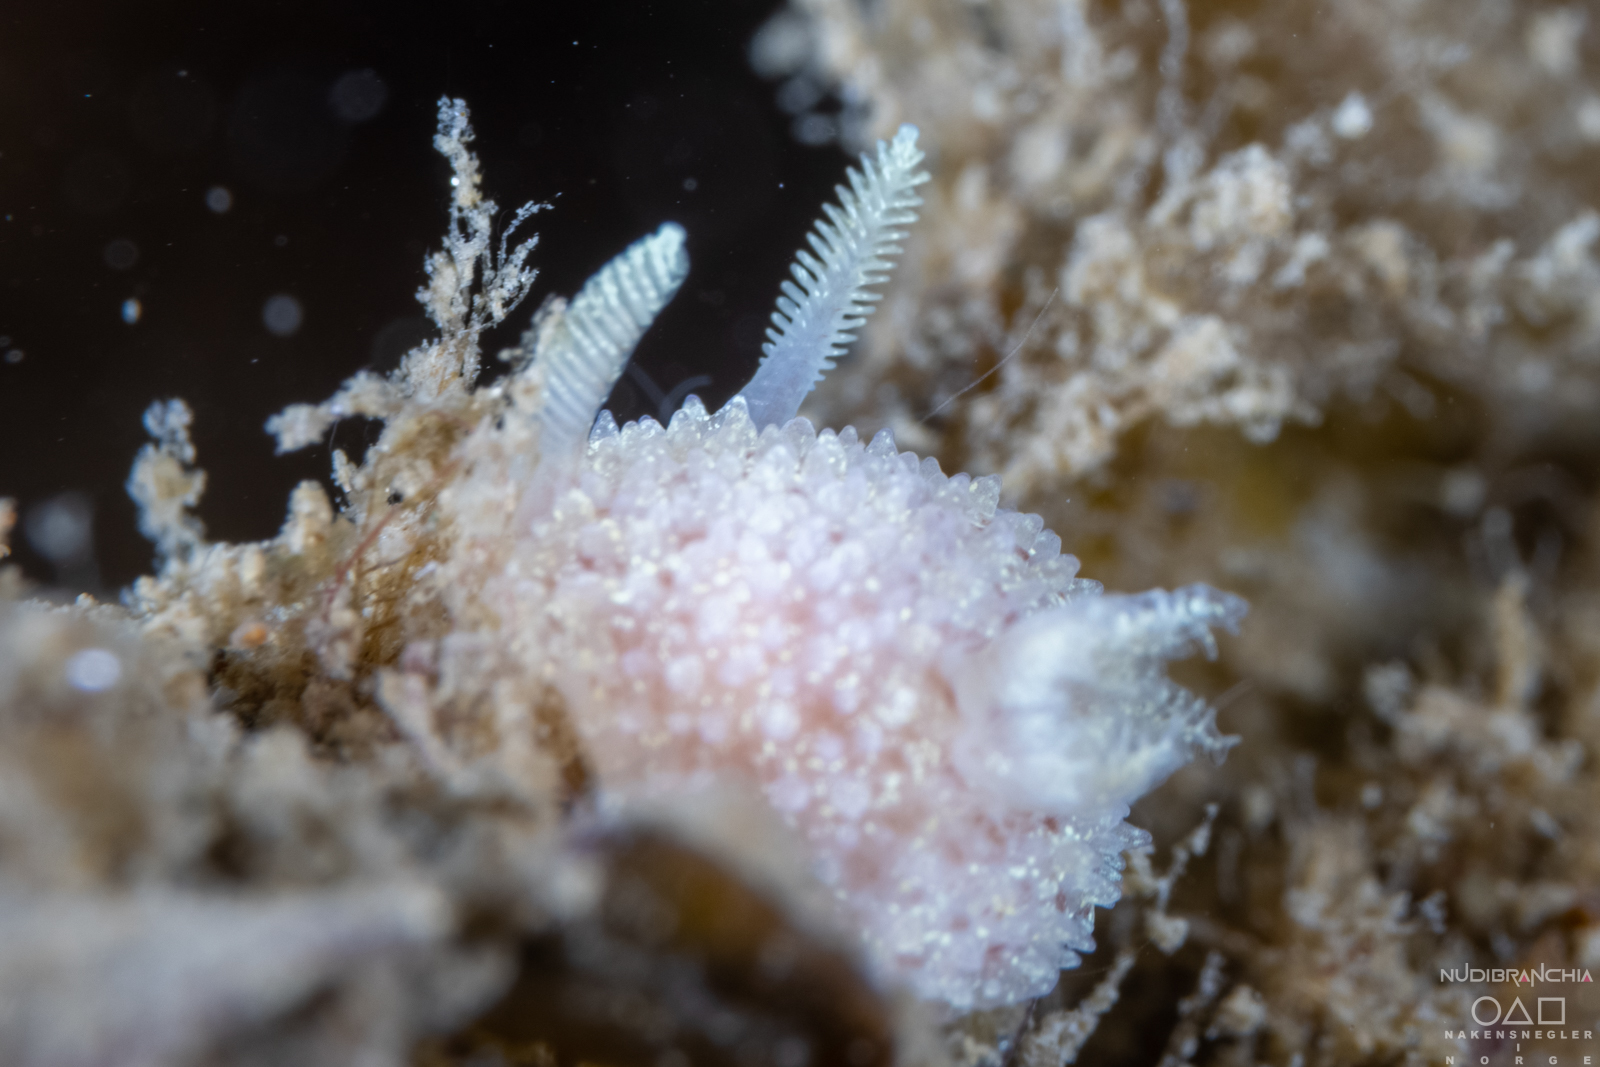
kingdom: Animalia
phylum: Mollusca
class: Gastropoda
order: Nudibranchia
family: Onchidorididae
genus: Acanthodoris
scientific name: Acanthodoris pilosa
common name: Hairy spiny doris
